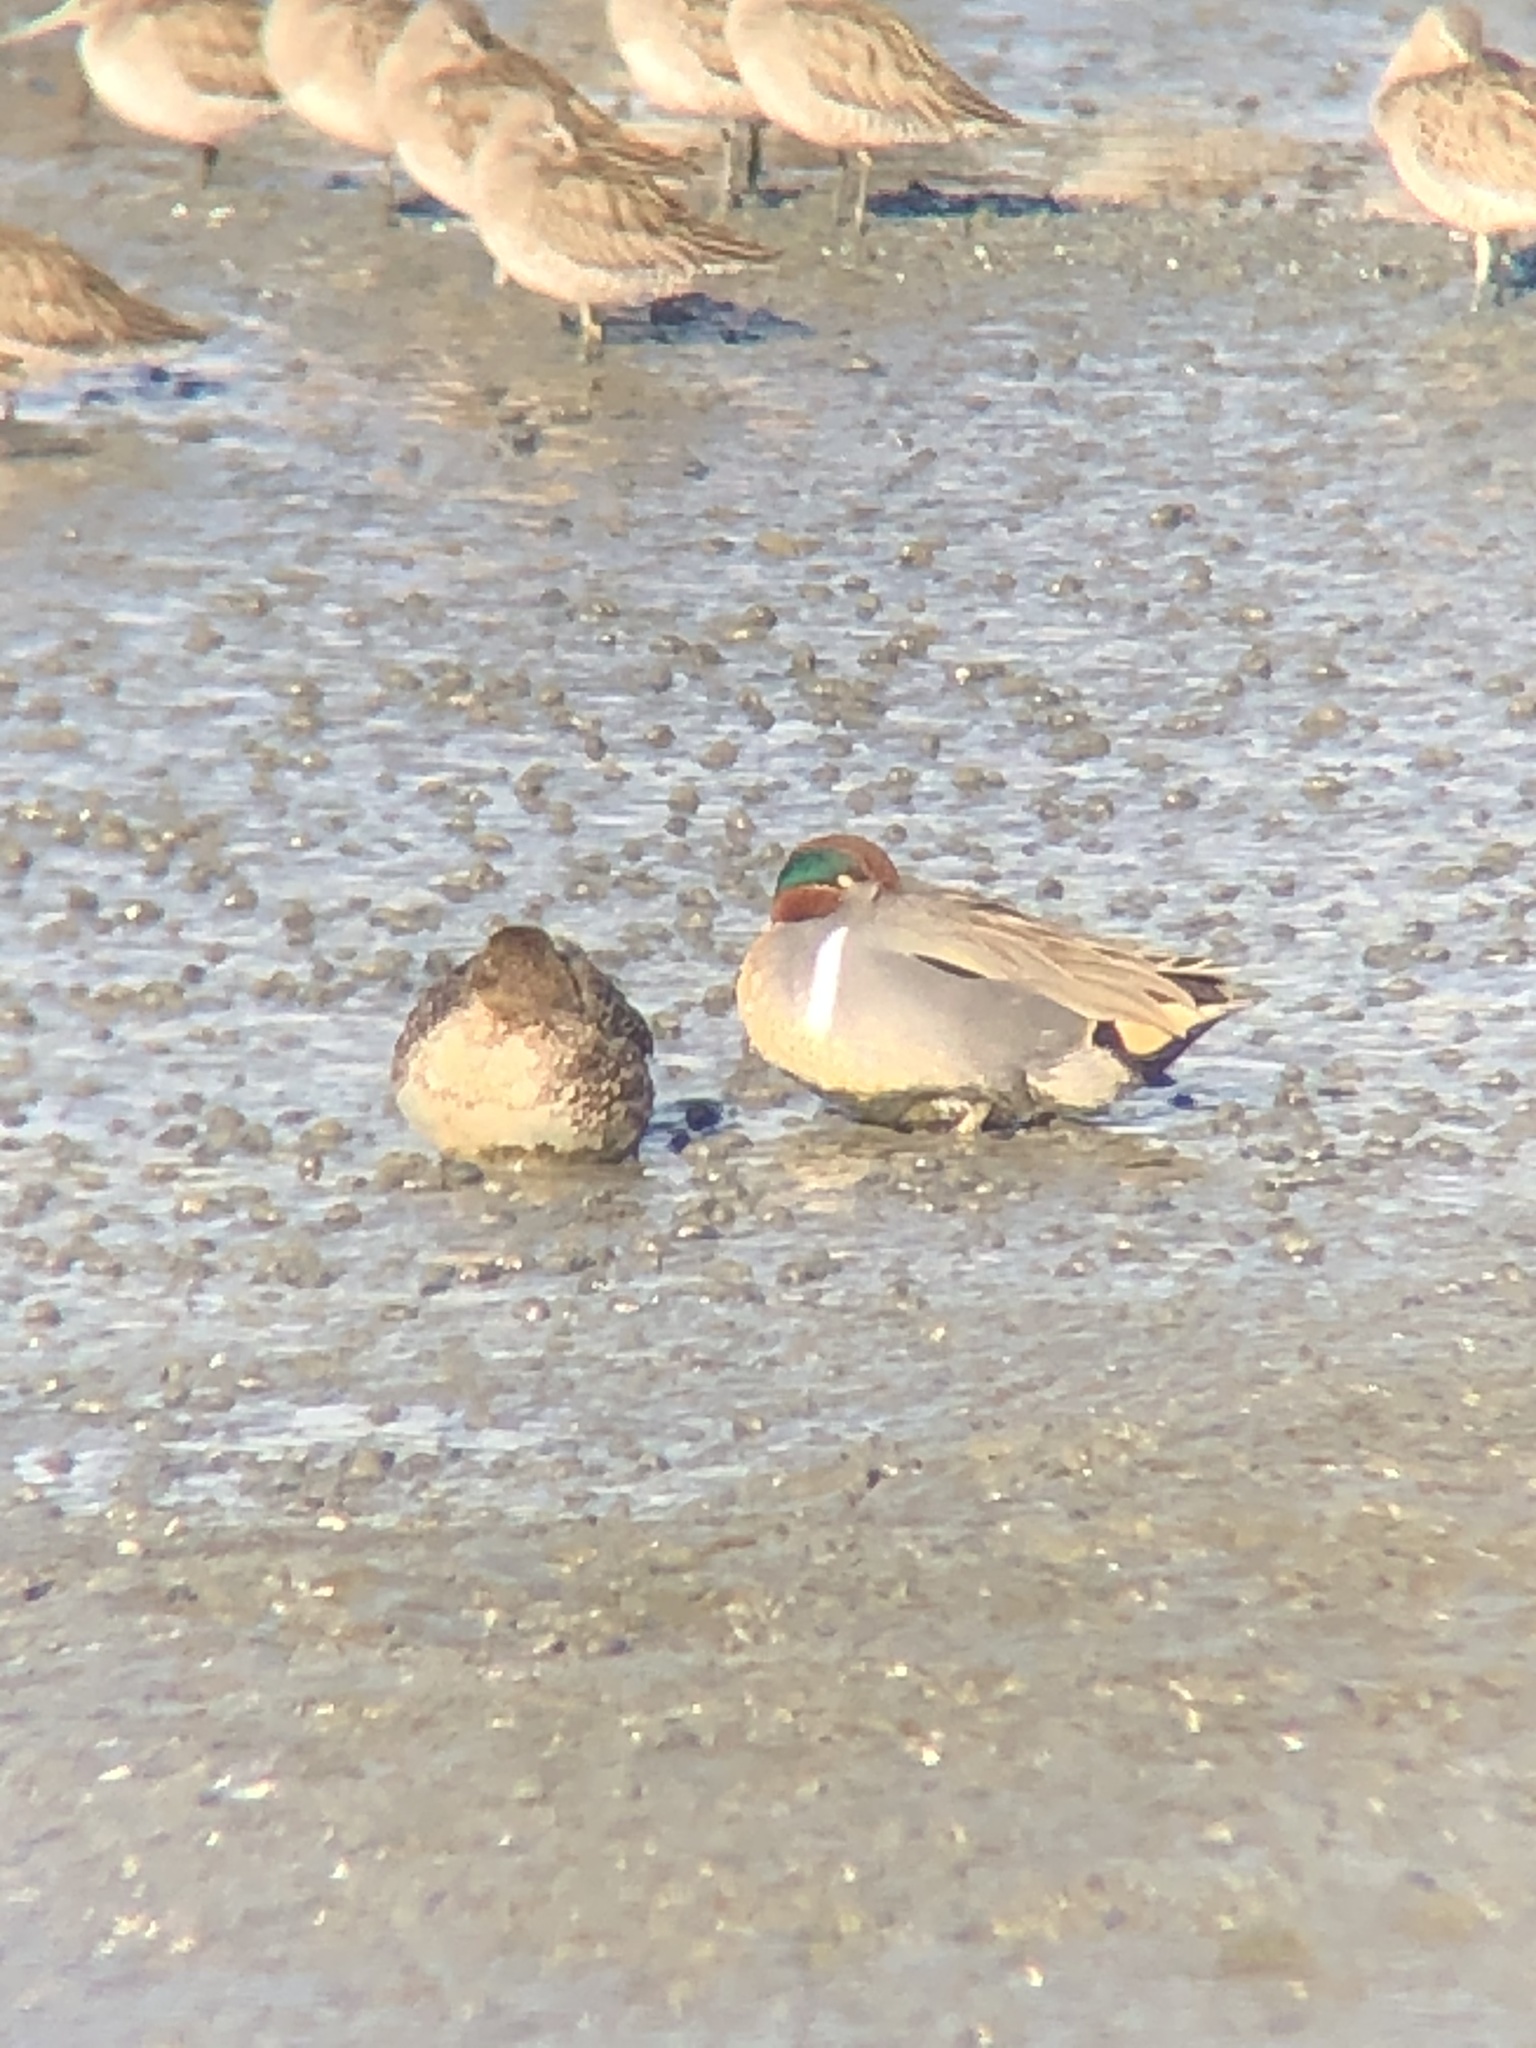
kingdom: Animalia
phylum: Chordata
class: Aves
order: Anseriformes
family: Anatidae
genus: Anas
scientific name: Anas crecca
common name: Eurasian teal
